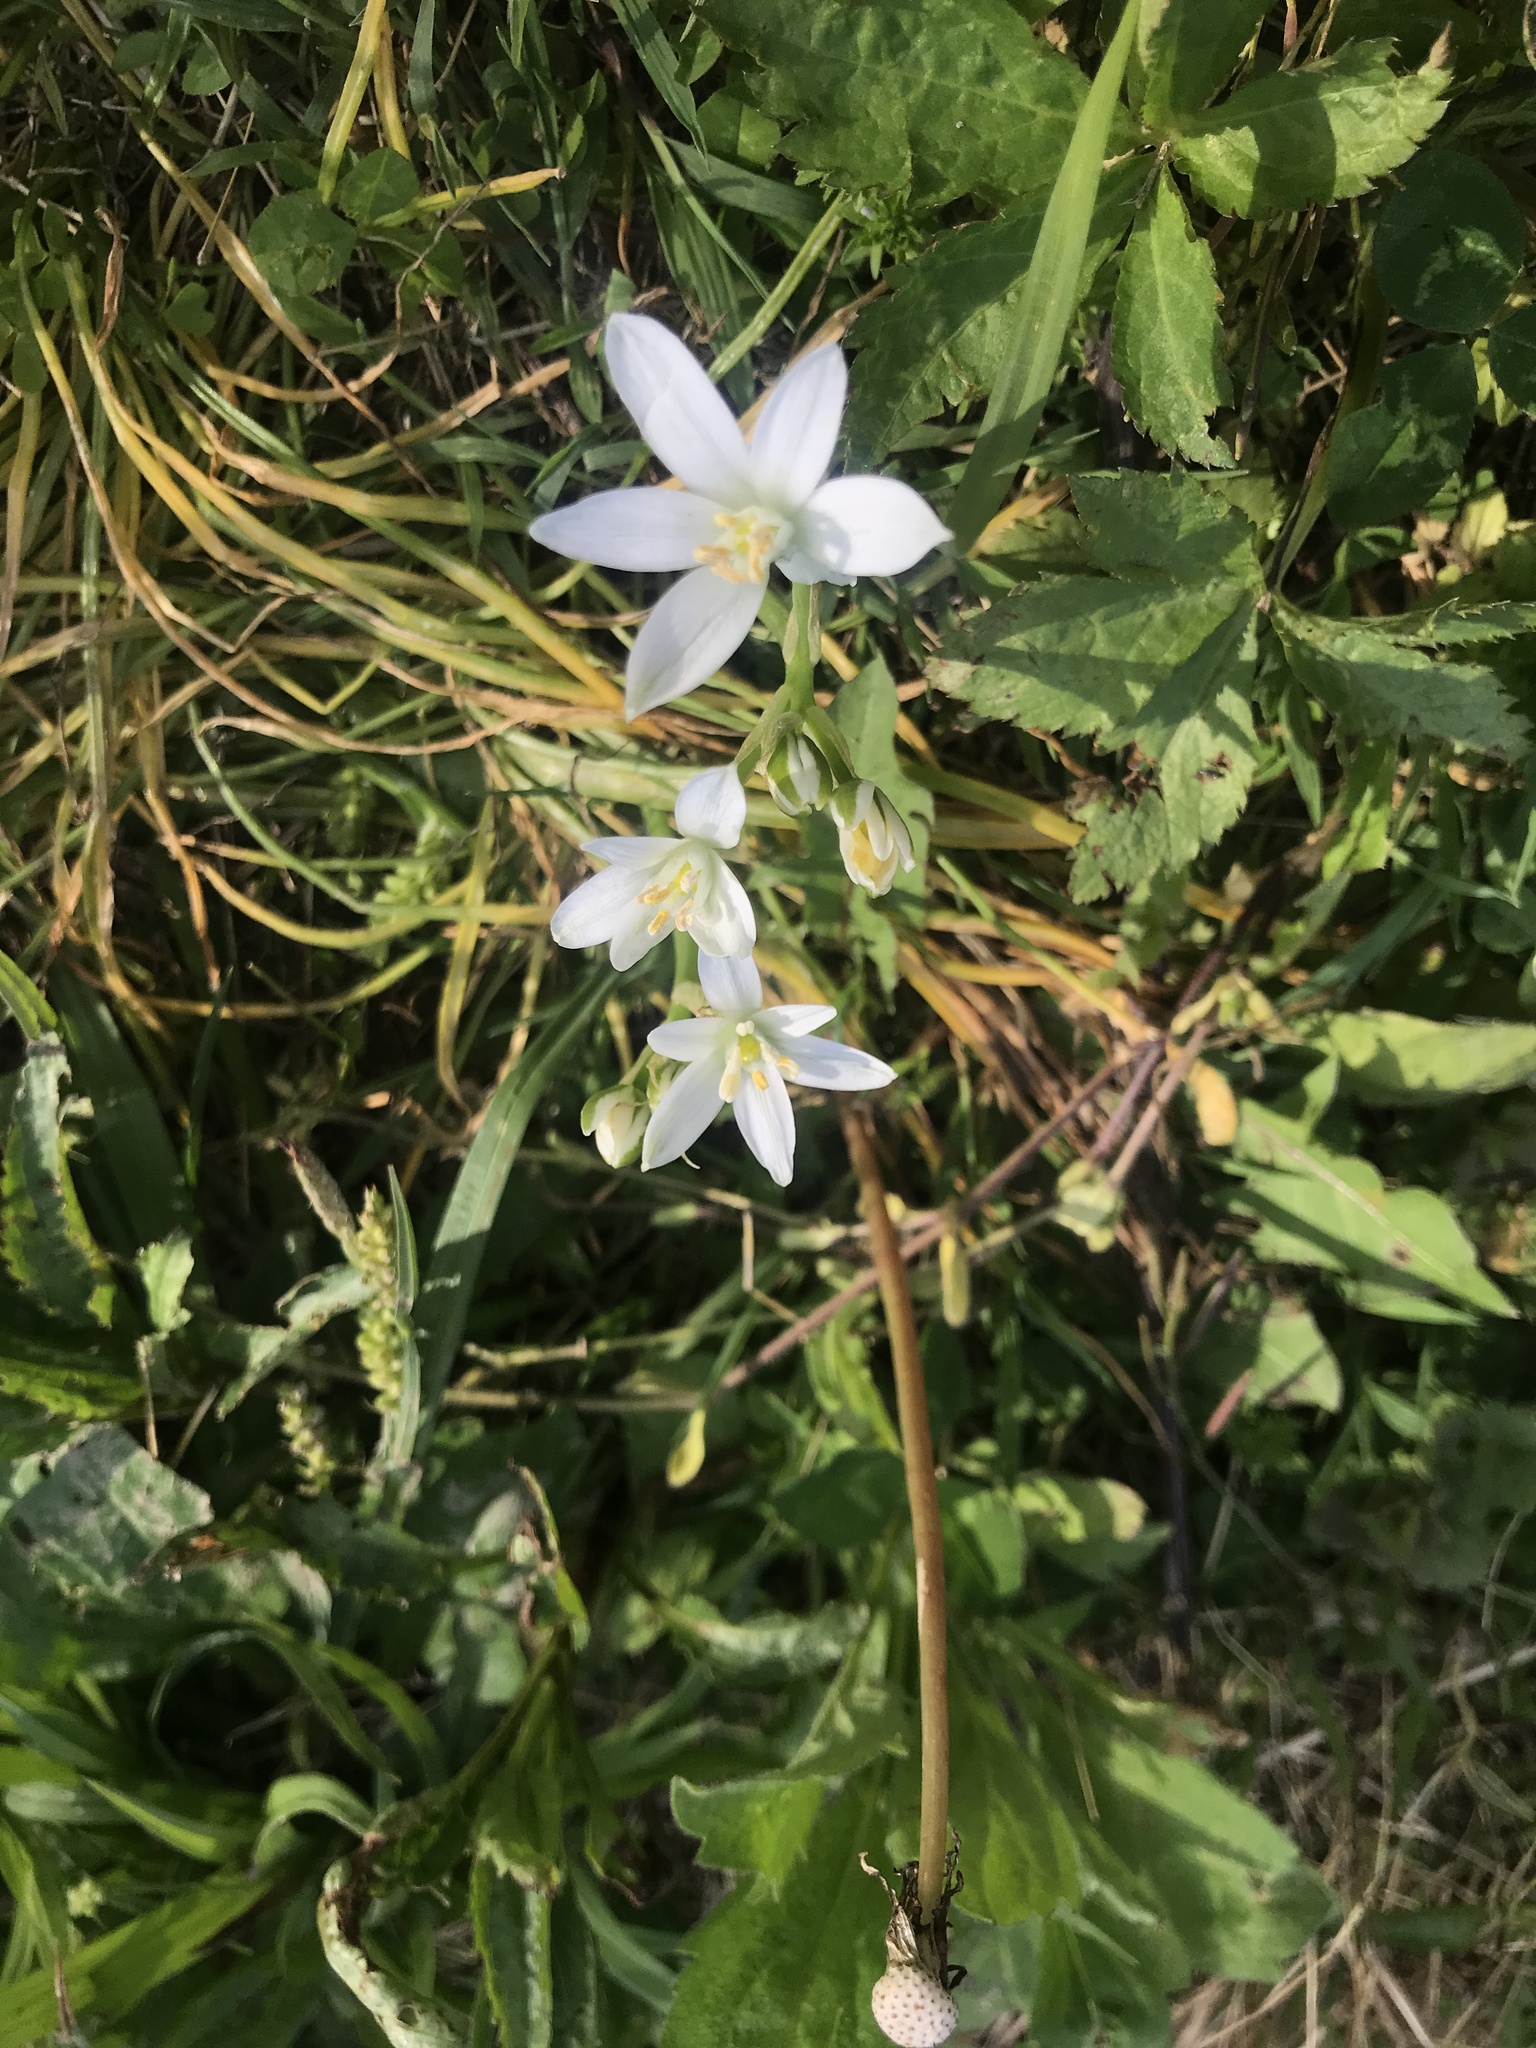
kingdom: Plantae
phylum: Tracheophyta
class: Liliopsida
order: Asparagales
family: Asparagaceae
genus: Ornithogalum
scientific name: Ornithogalum umbellatum
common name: Garden star-of-bethlehem
